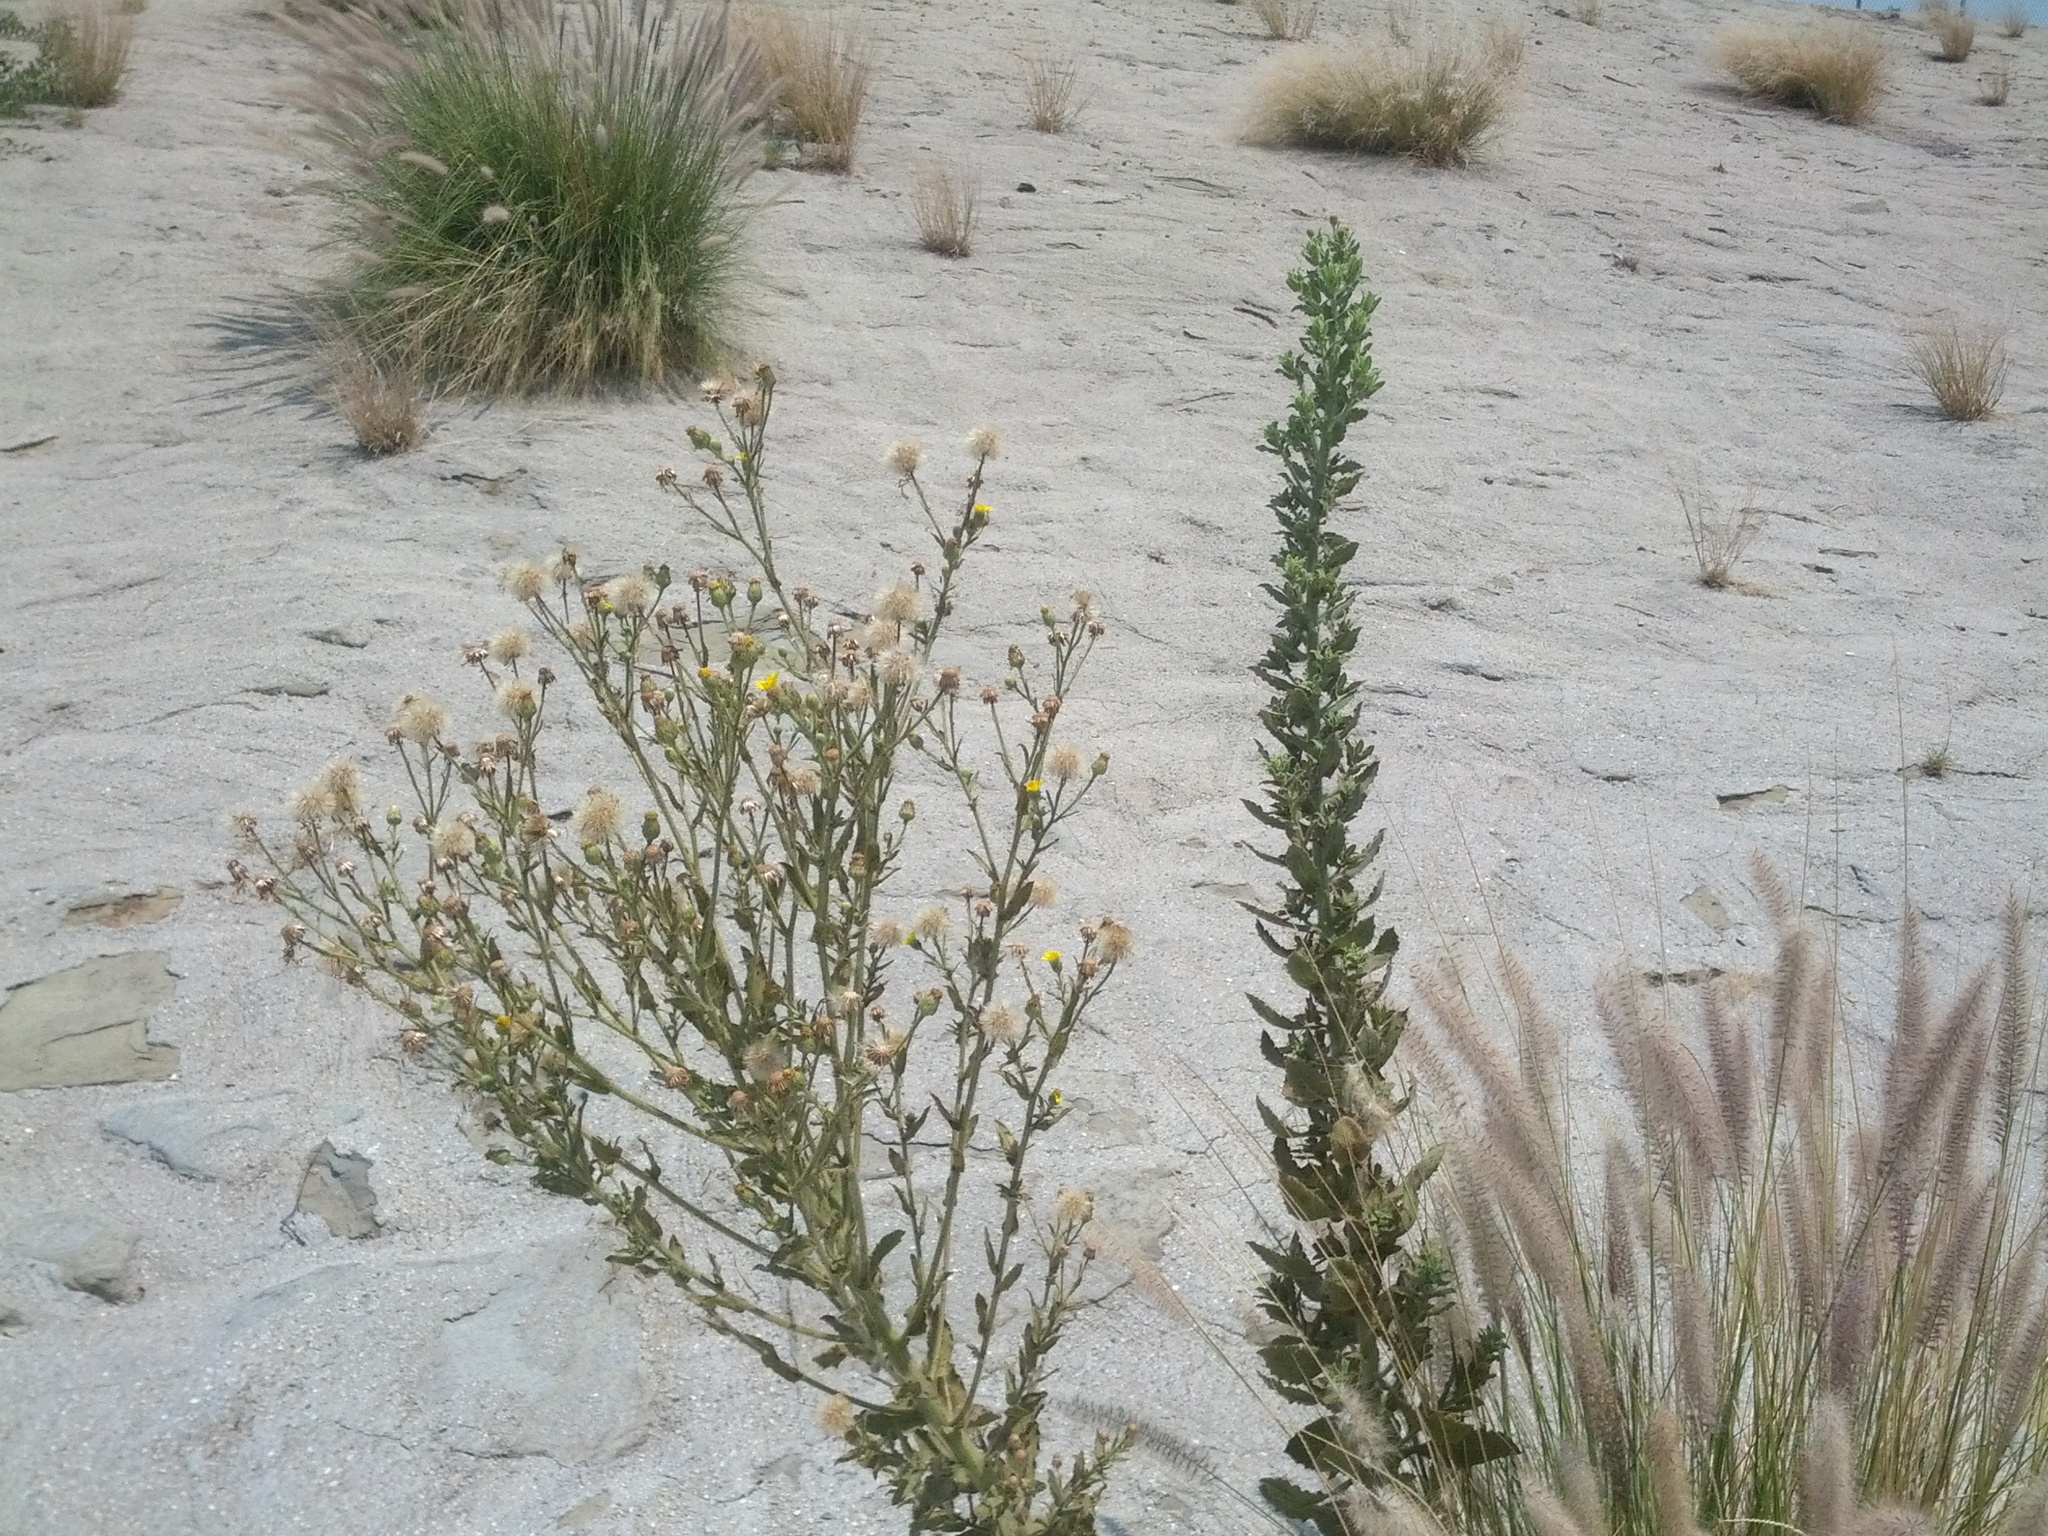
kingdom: Plantae
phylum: Tracheophyta
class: Magnoliopsida
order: Asterales
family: Asteraceae
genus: Heterotheca
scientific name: Heterotheca grandiflora
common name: Telegraphweed
